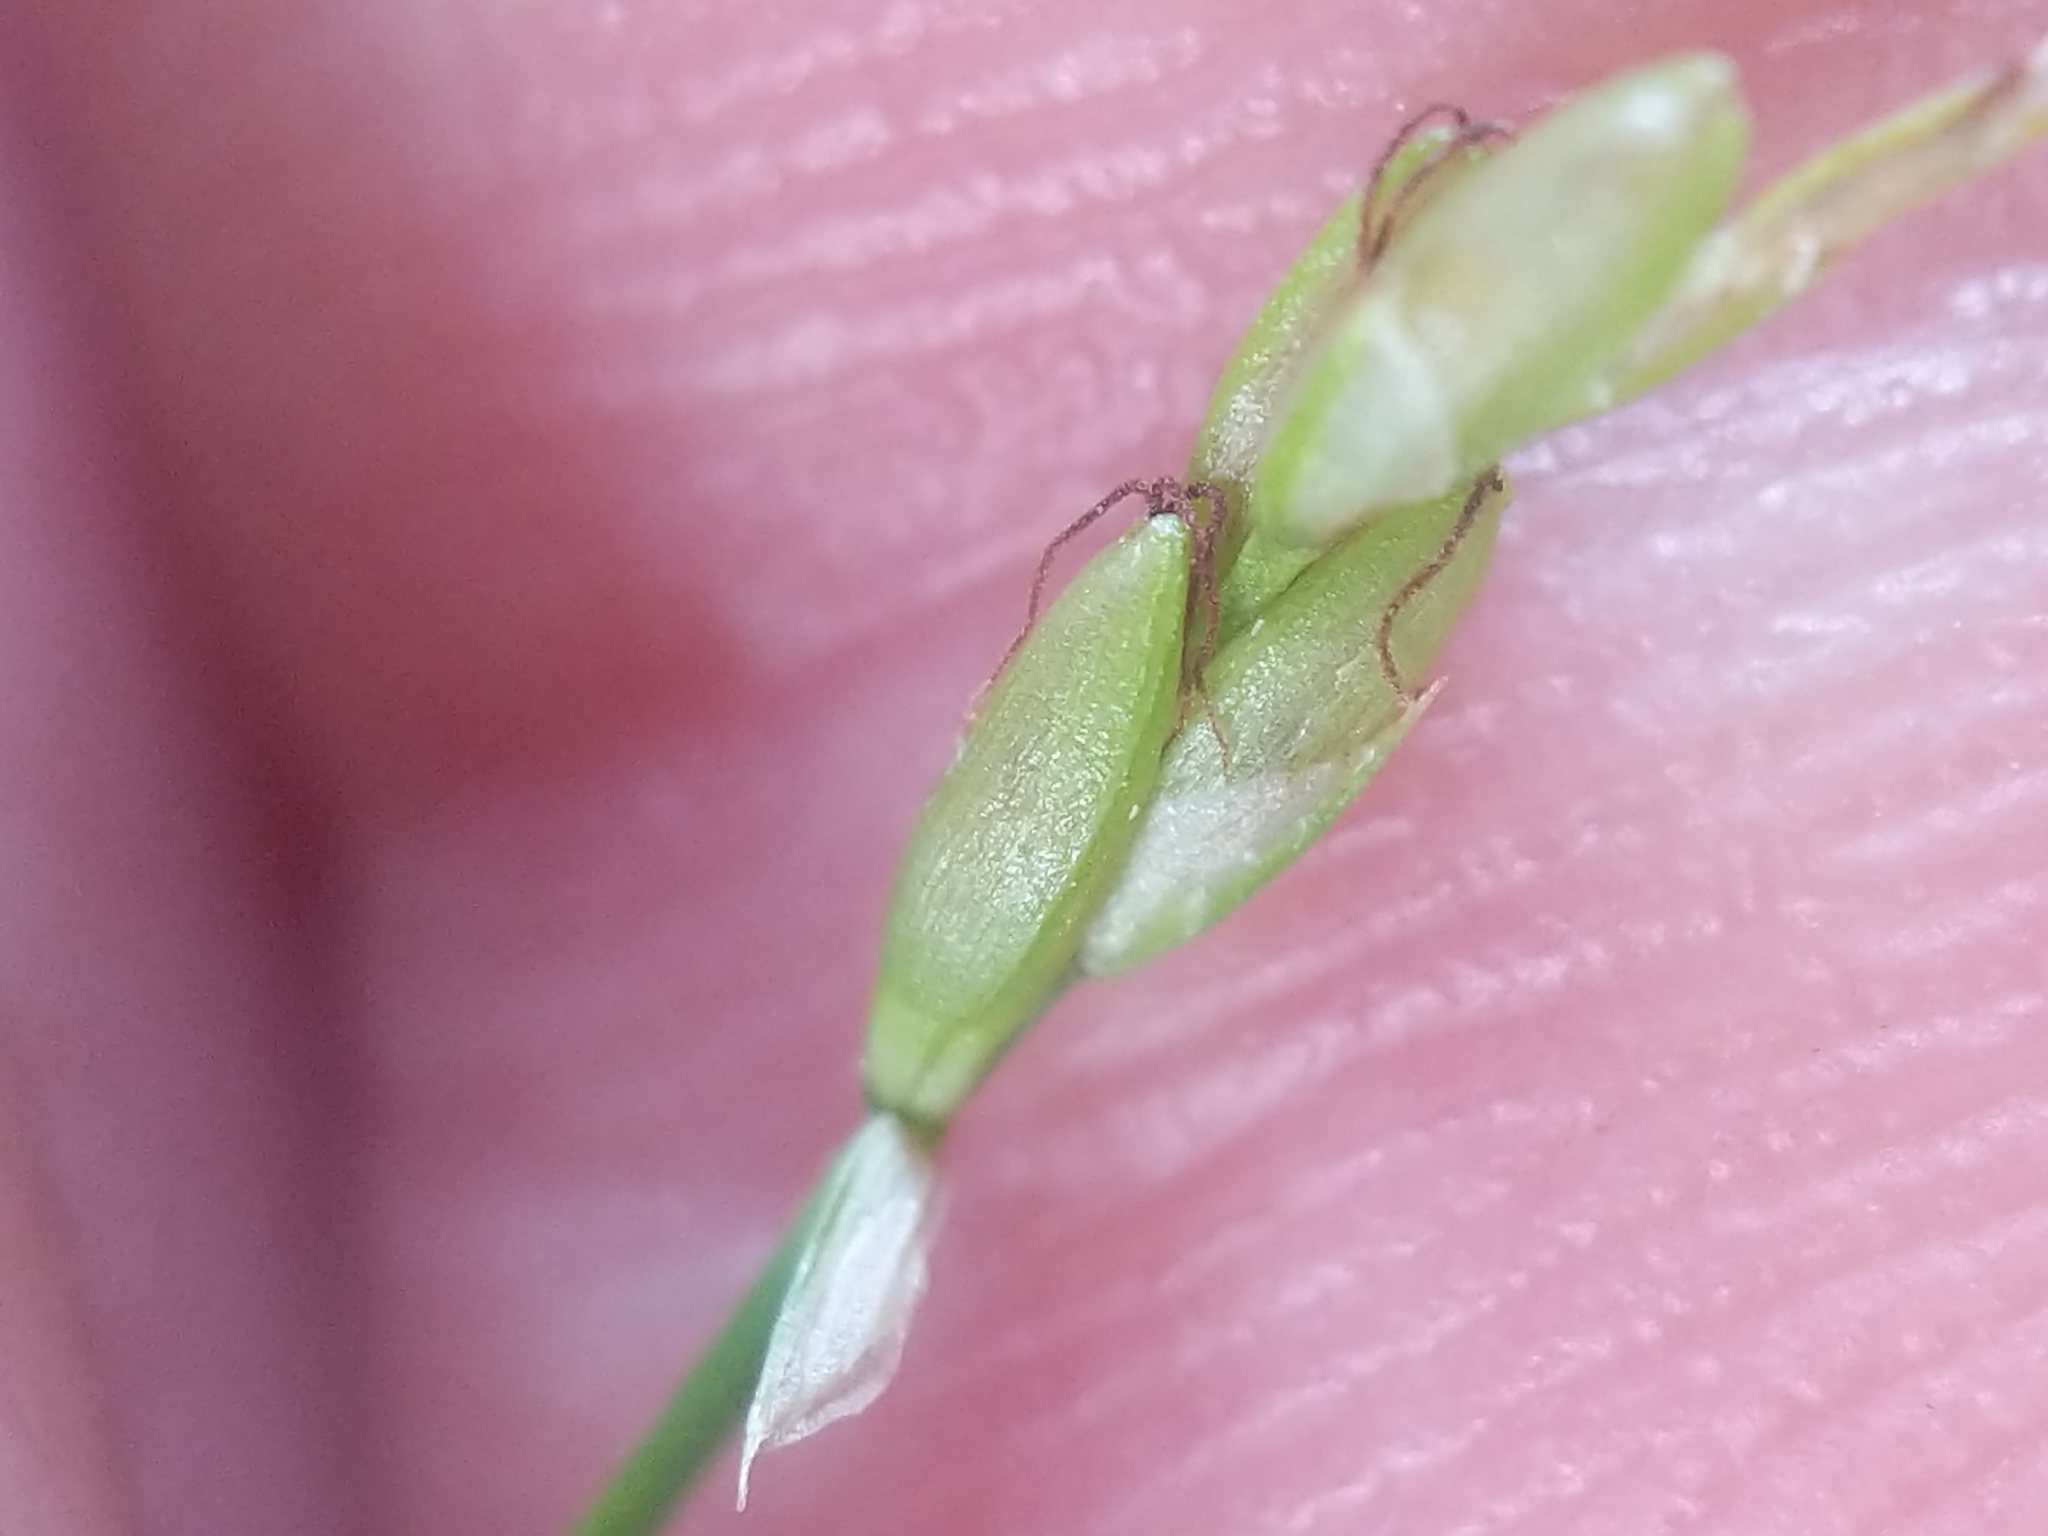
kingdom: Plantae
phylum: Tracheophyta
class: Liliopsida
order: Poales
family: Cyperaceae
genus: Carex
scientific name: Carex leptalea
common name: Bristly-stalked sedge
